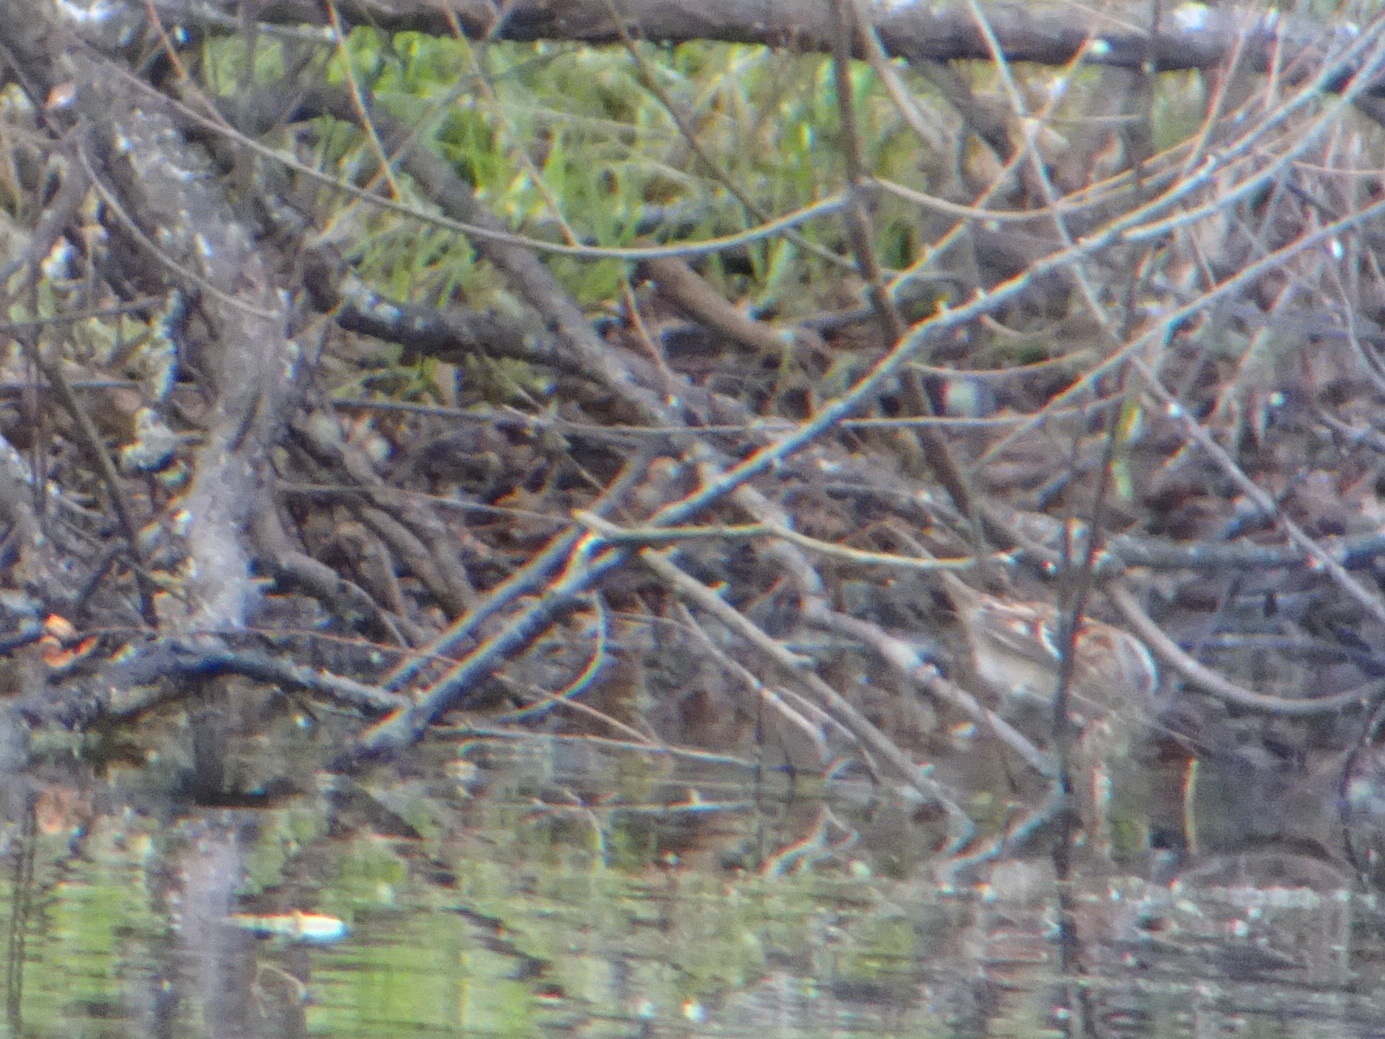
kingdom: Animalia
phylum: Chordata
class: Aves
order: Passeriformes
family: Passerellidae
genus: Spizelloides
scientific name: Spizelloides arborea
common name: American tree sparrow
